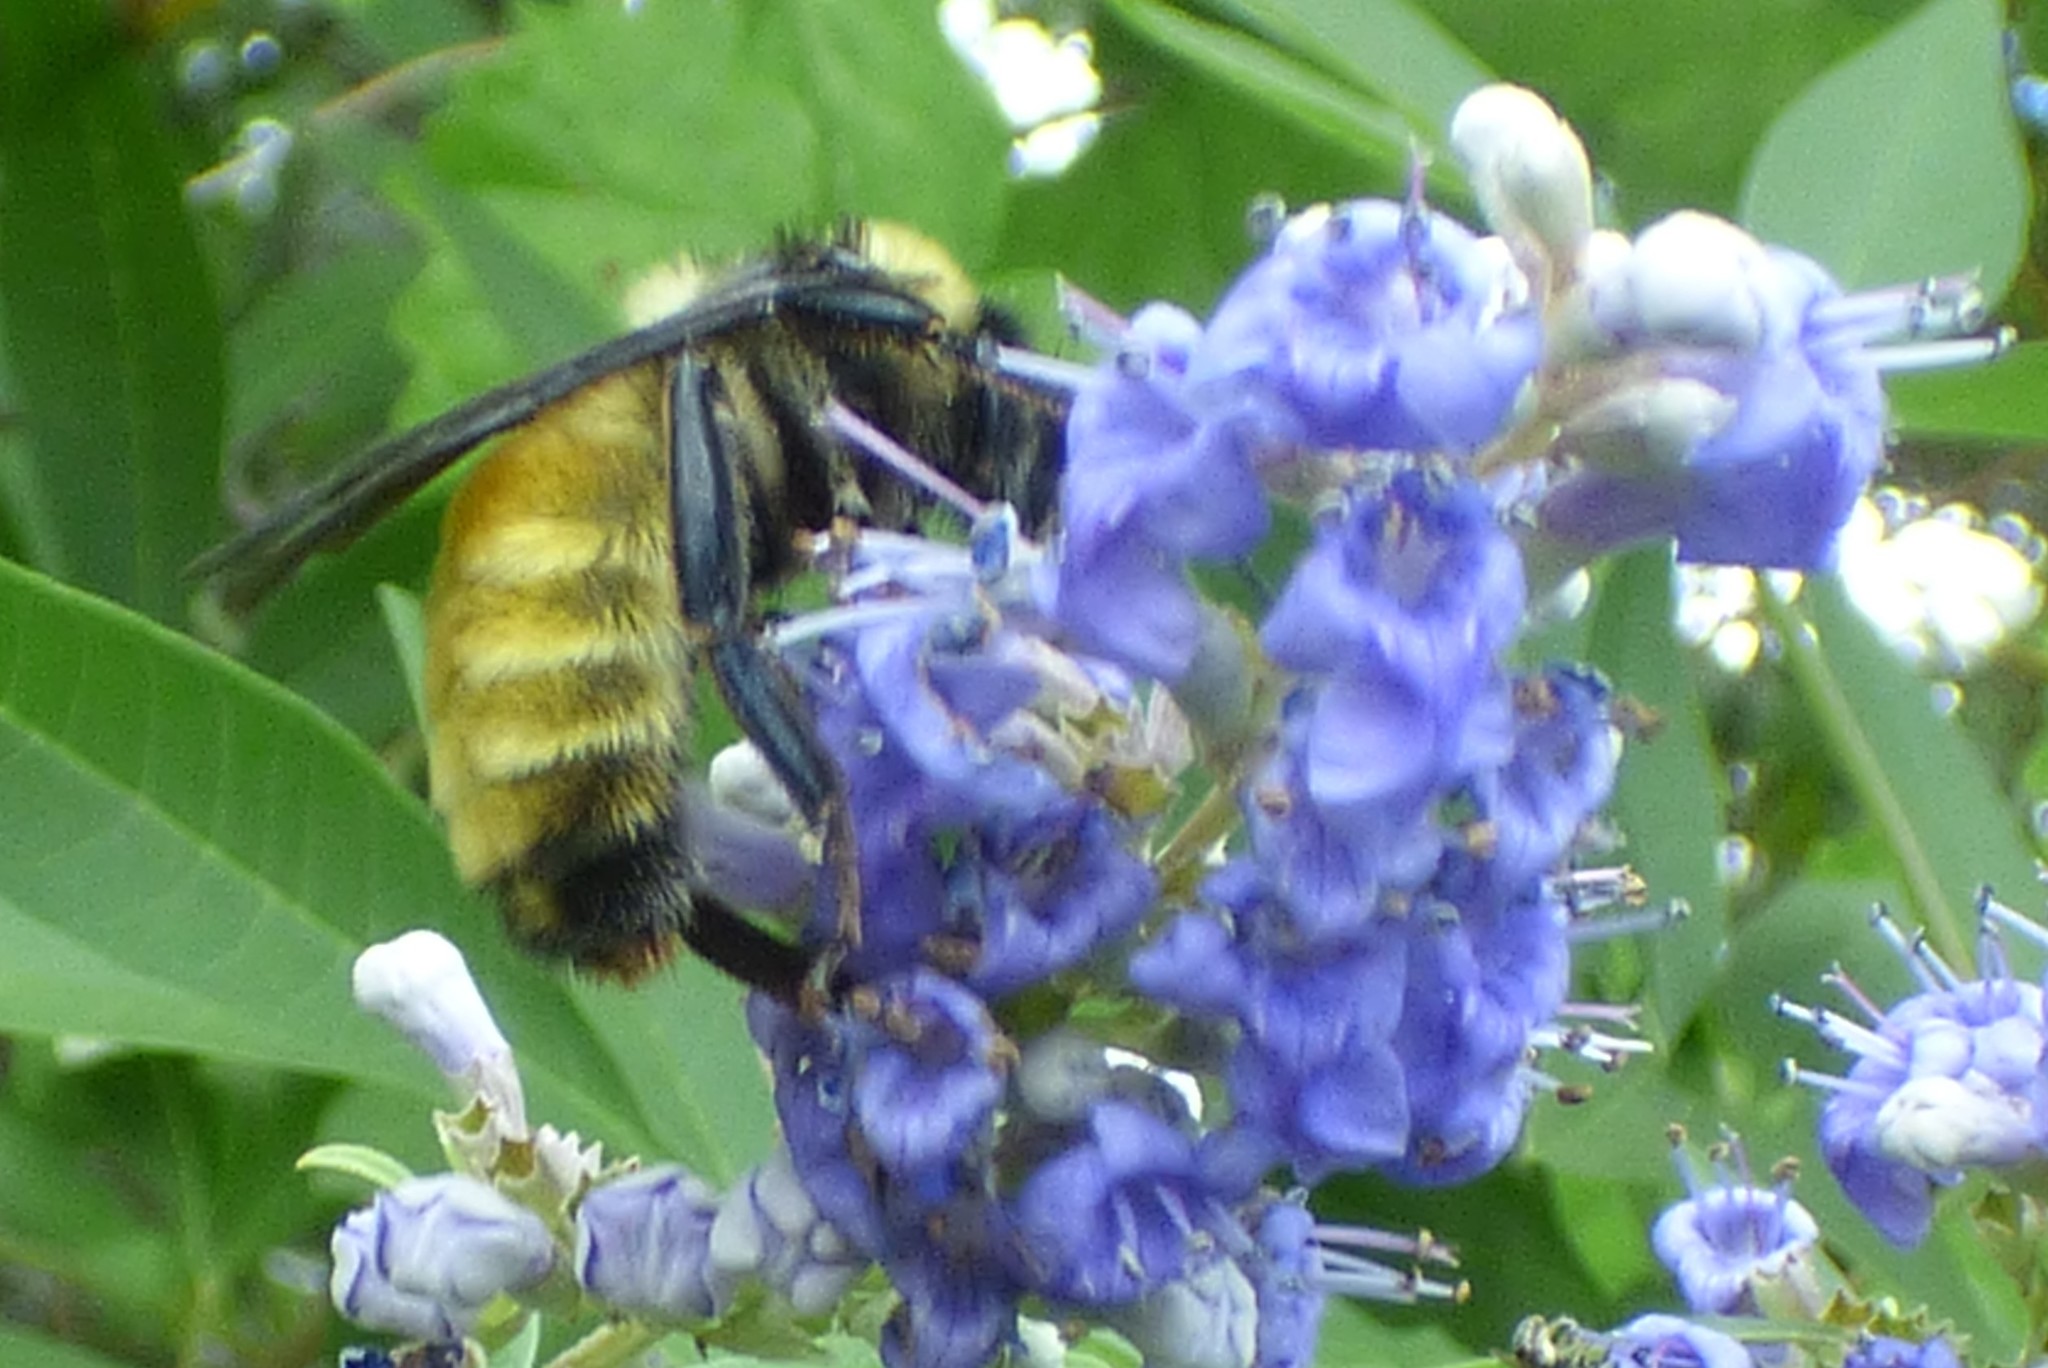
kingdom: Animalia
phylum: Arthropoda
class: Insecta
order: Hymenoptera
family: Apidae
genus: Bombus
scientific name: Bombus pensylvanicus
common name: Bumble bee
